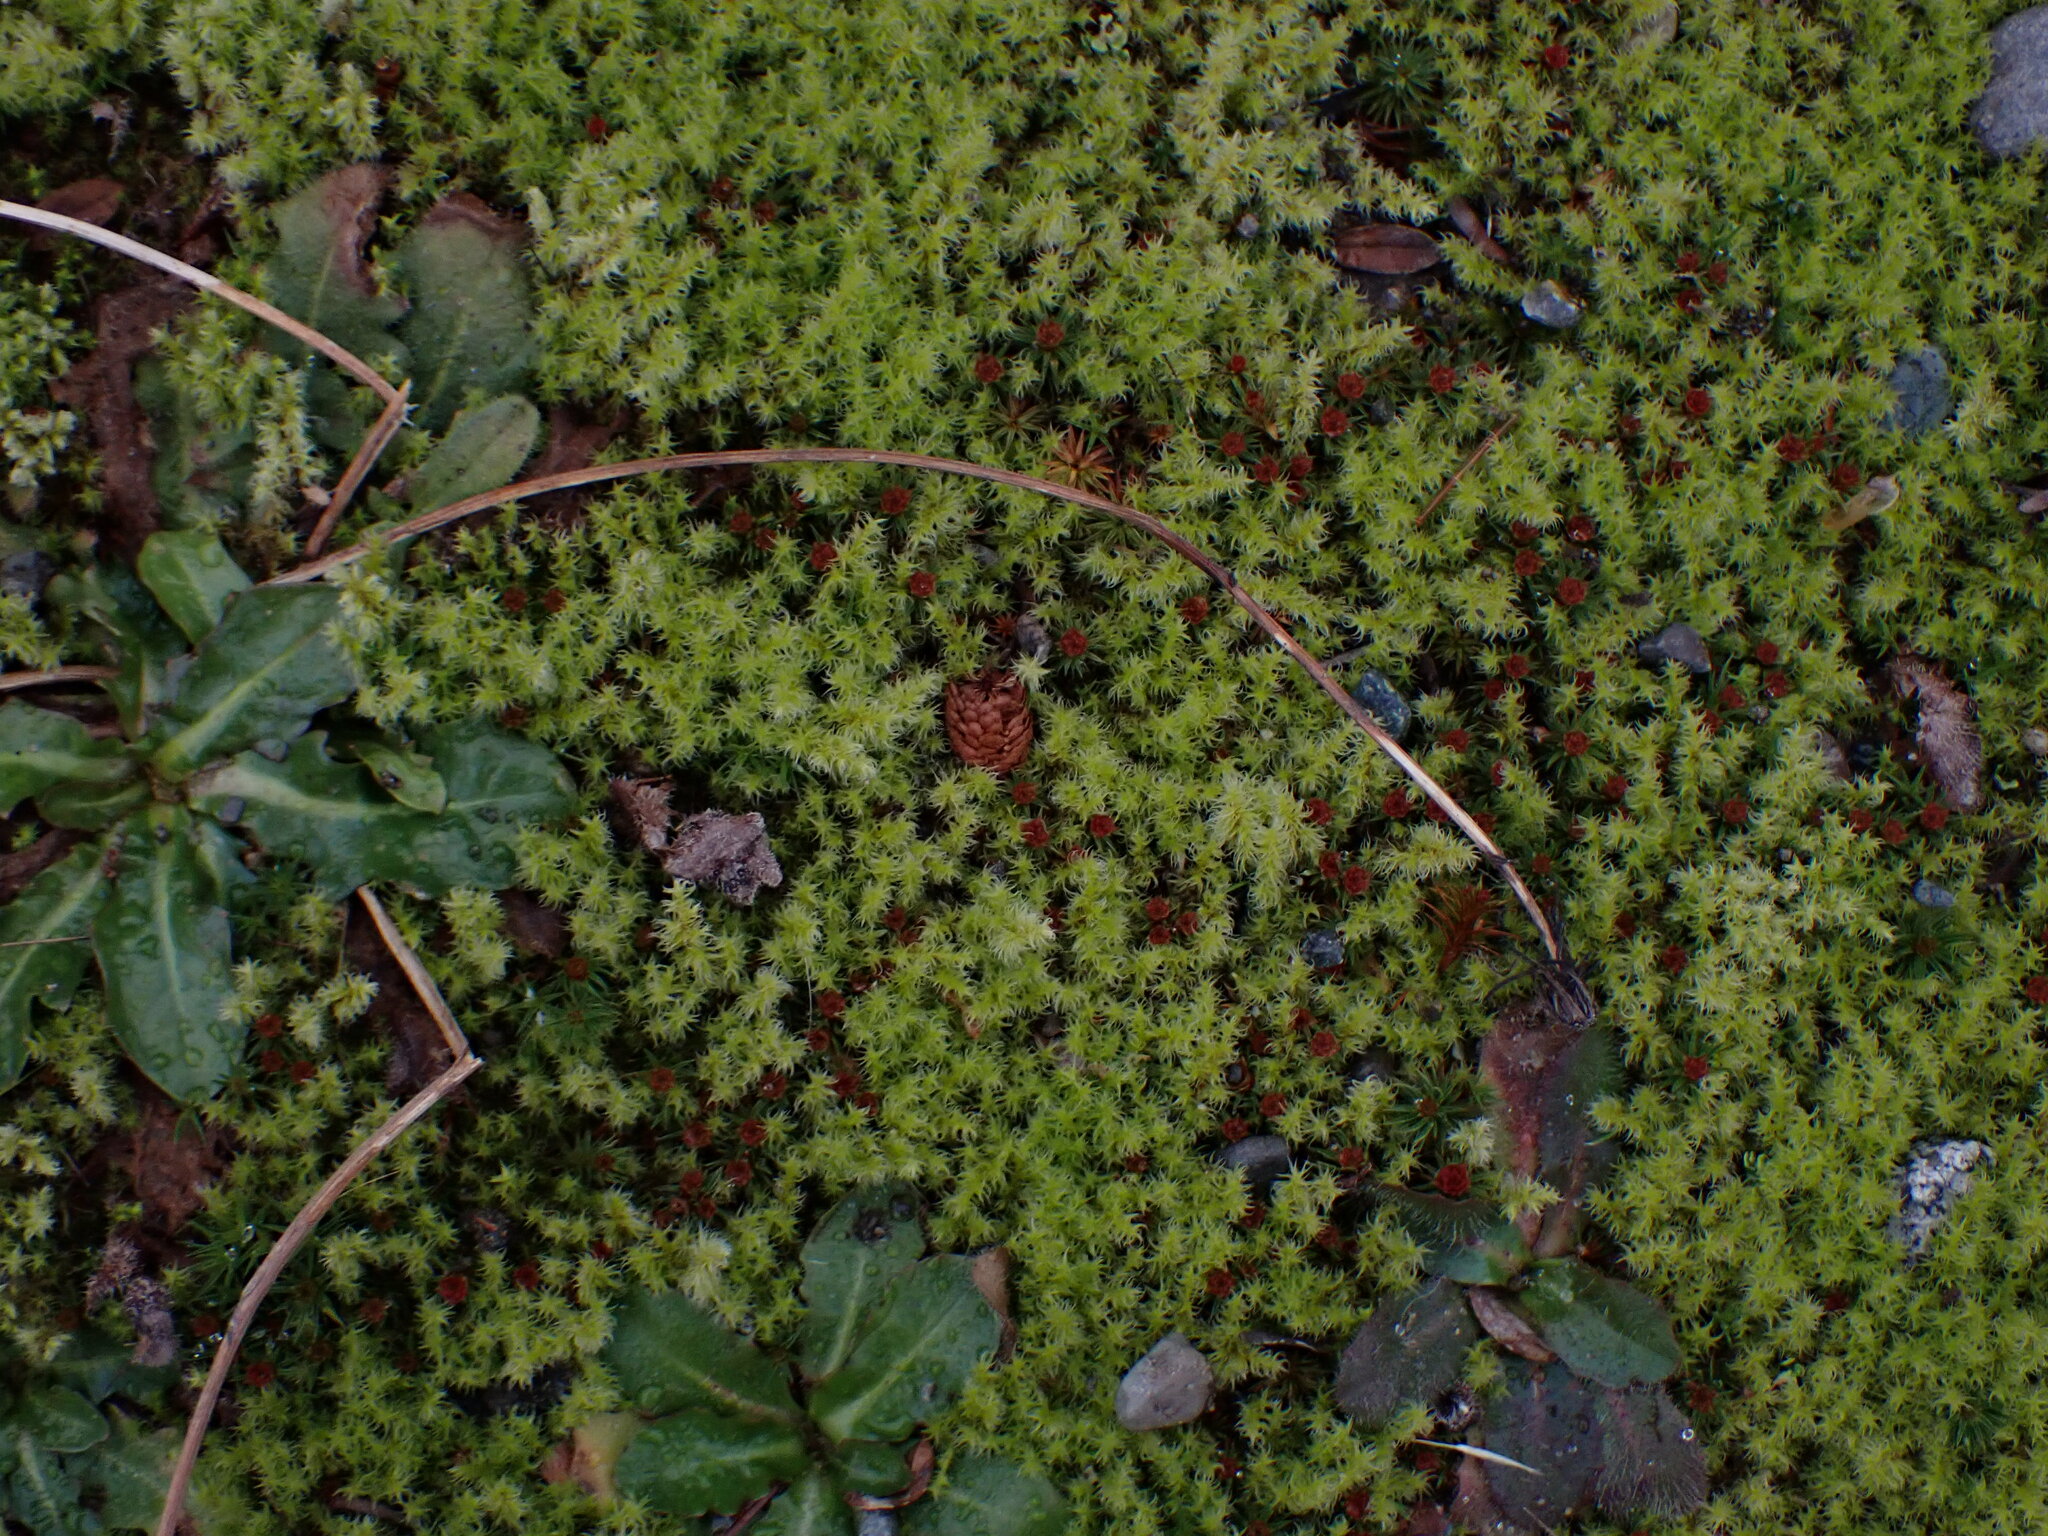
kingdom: Plantae
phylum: Bryophyta
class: Bryopsida
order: Grimmiales
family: Grimmiaceae
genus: Niphotrichum
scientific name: Niphotrichum elongatum
